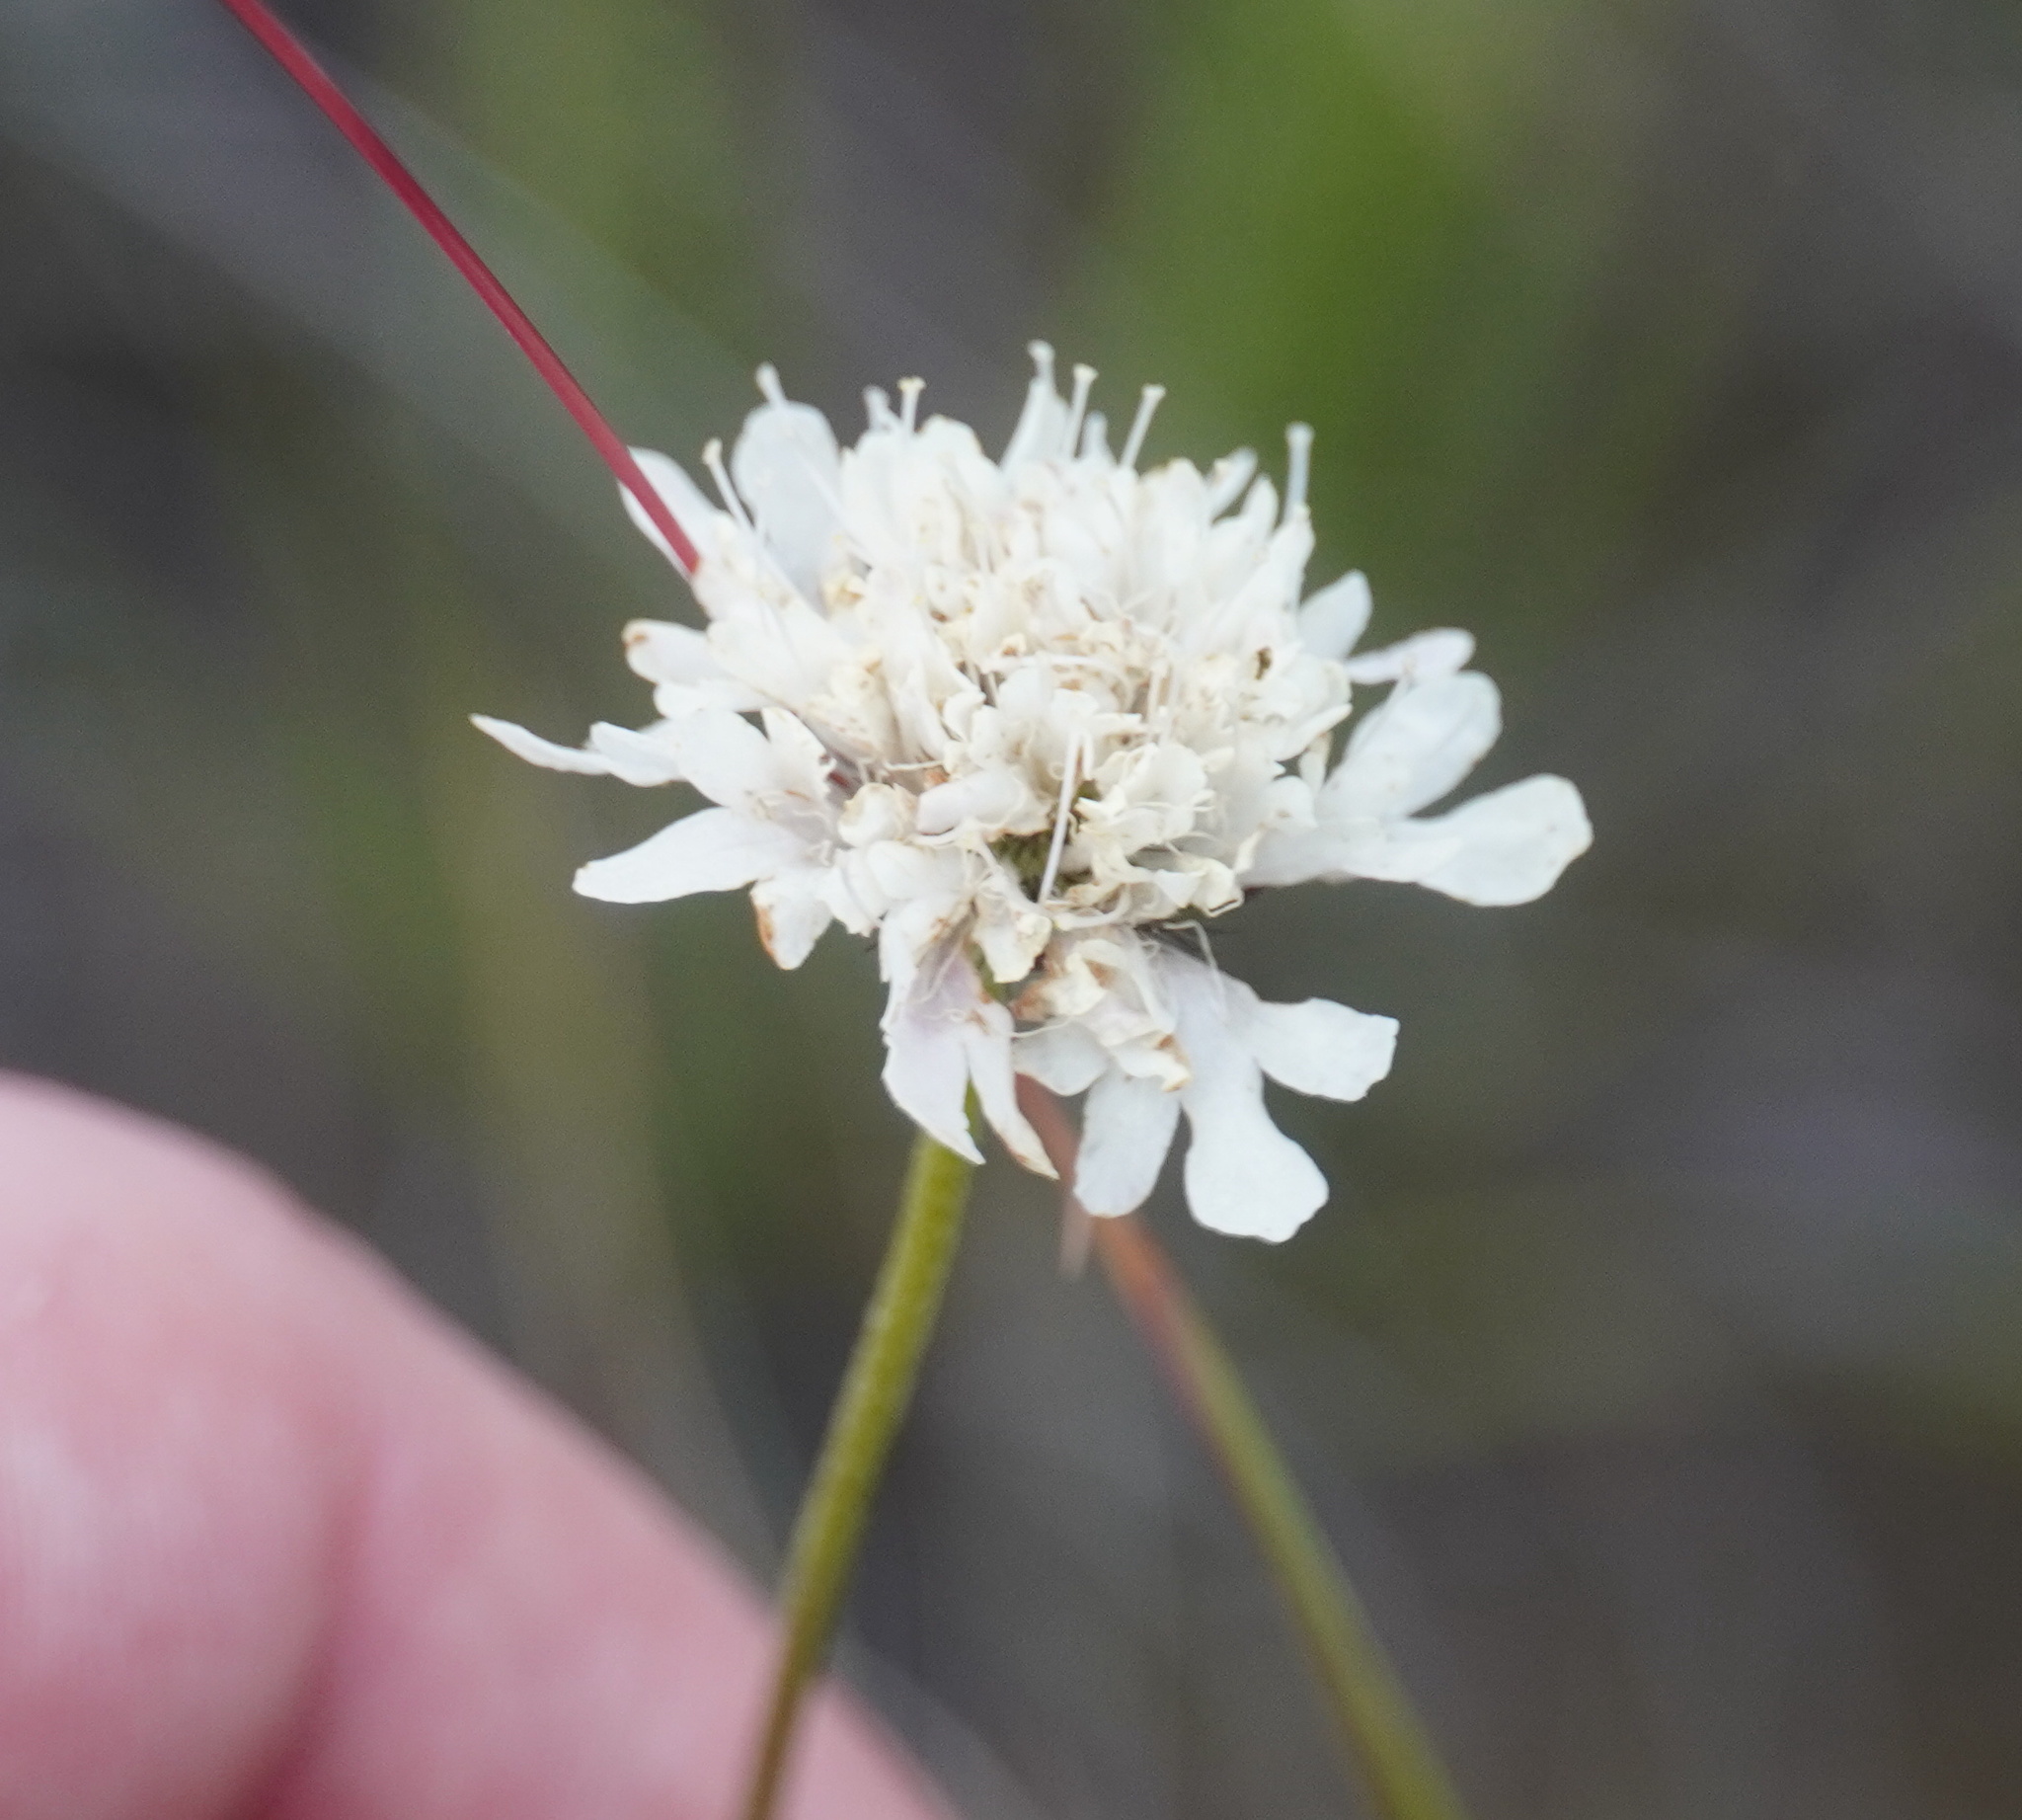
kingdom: Plantae
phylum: Tracheophyta
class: Magnoliopsida
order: Dipsacales
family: Caprifoliaceae
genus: Scabiosa
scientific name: Scabiosa columbaria
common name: Small scabious
